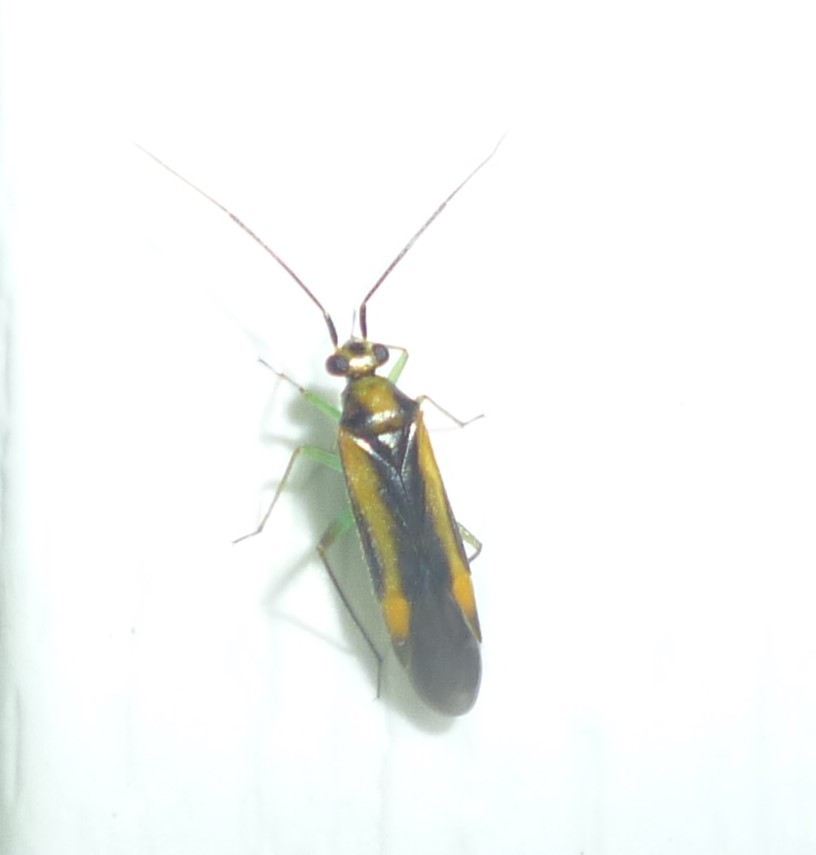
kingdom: Animalia
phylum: Arthropoda
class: Insecta
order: Hemiptera
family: Miridae
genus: Orthotylus
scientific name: Orthotylus submarginatus
